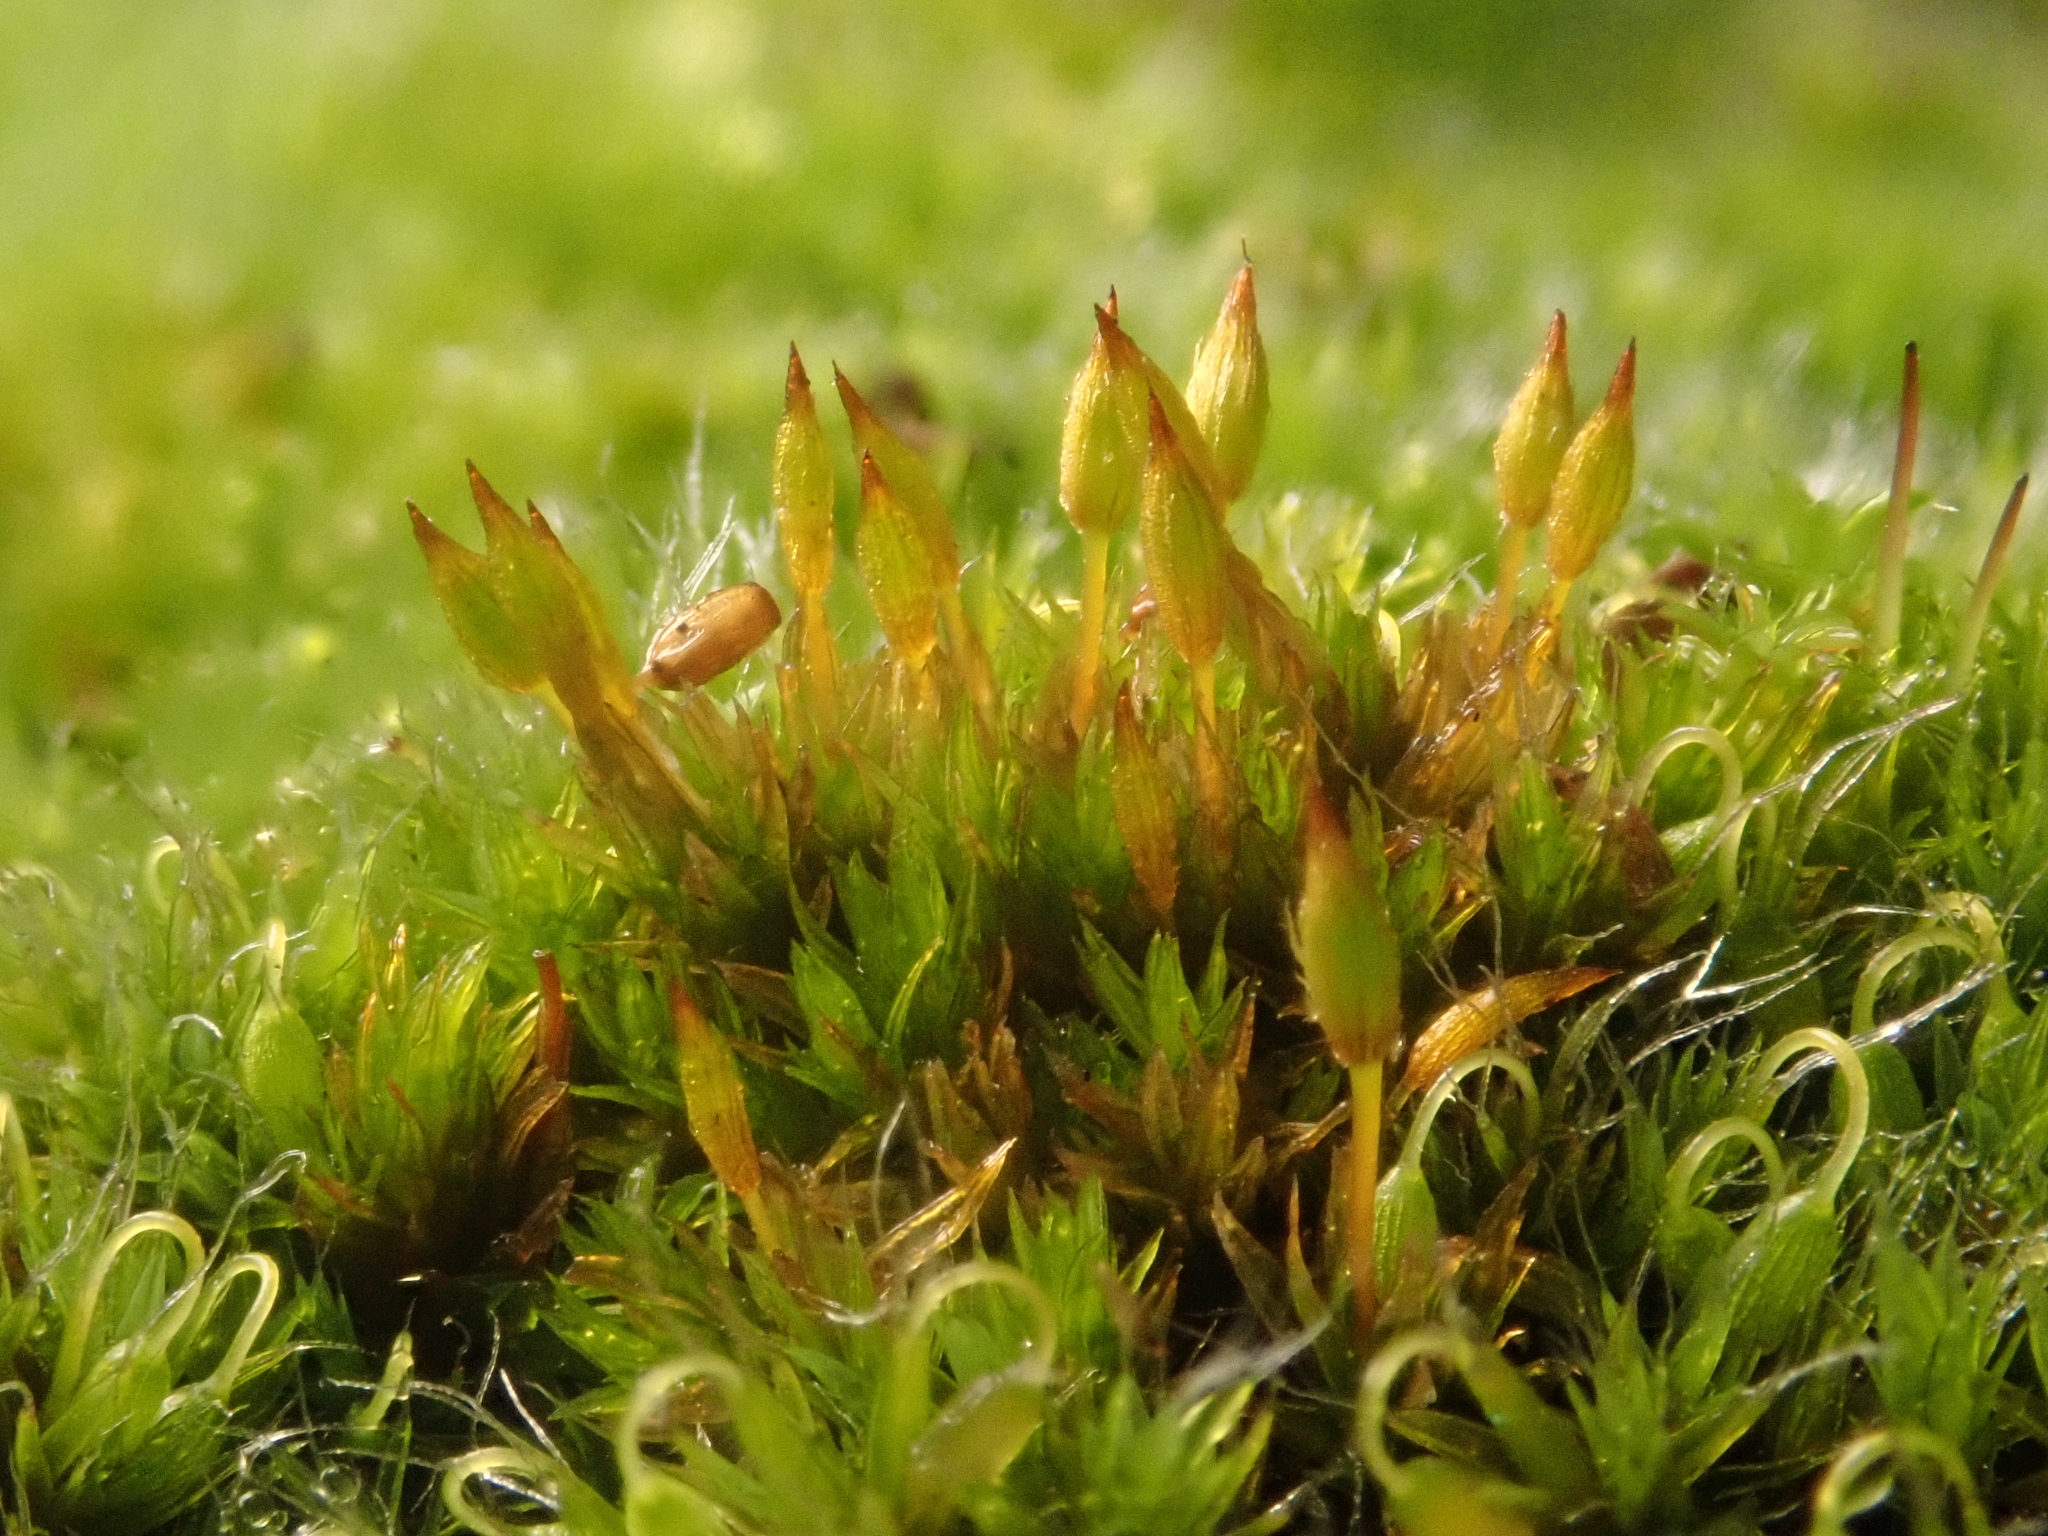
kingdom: Plantae
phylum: Bryophyta
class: Bryopsida
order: Orthotrichales
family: Orthotrichaceae
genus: Orthotrichum
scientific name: Orthotrichum anomalum
